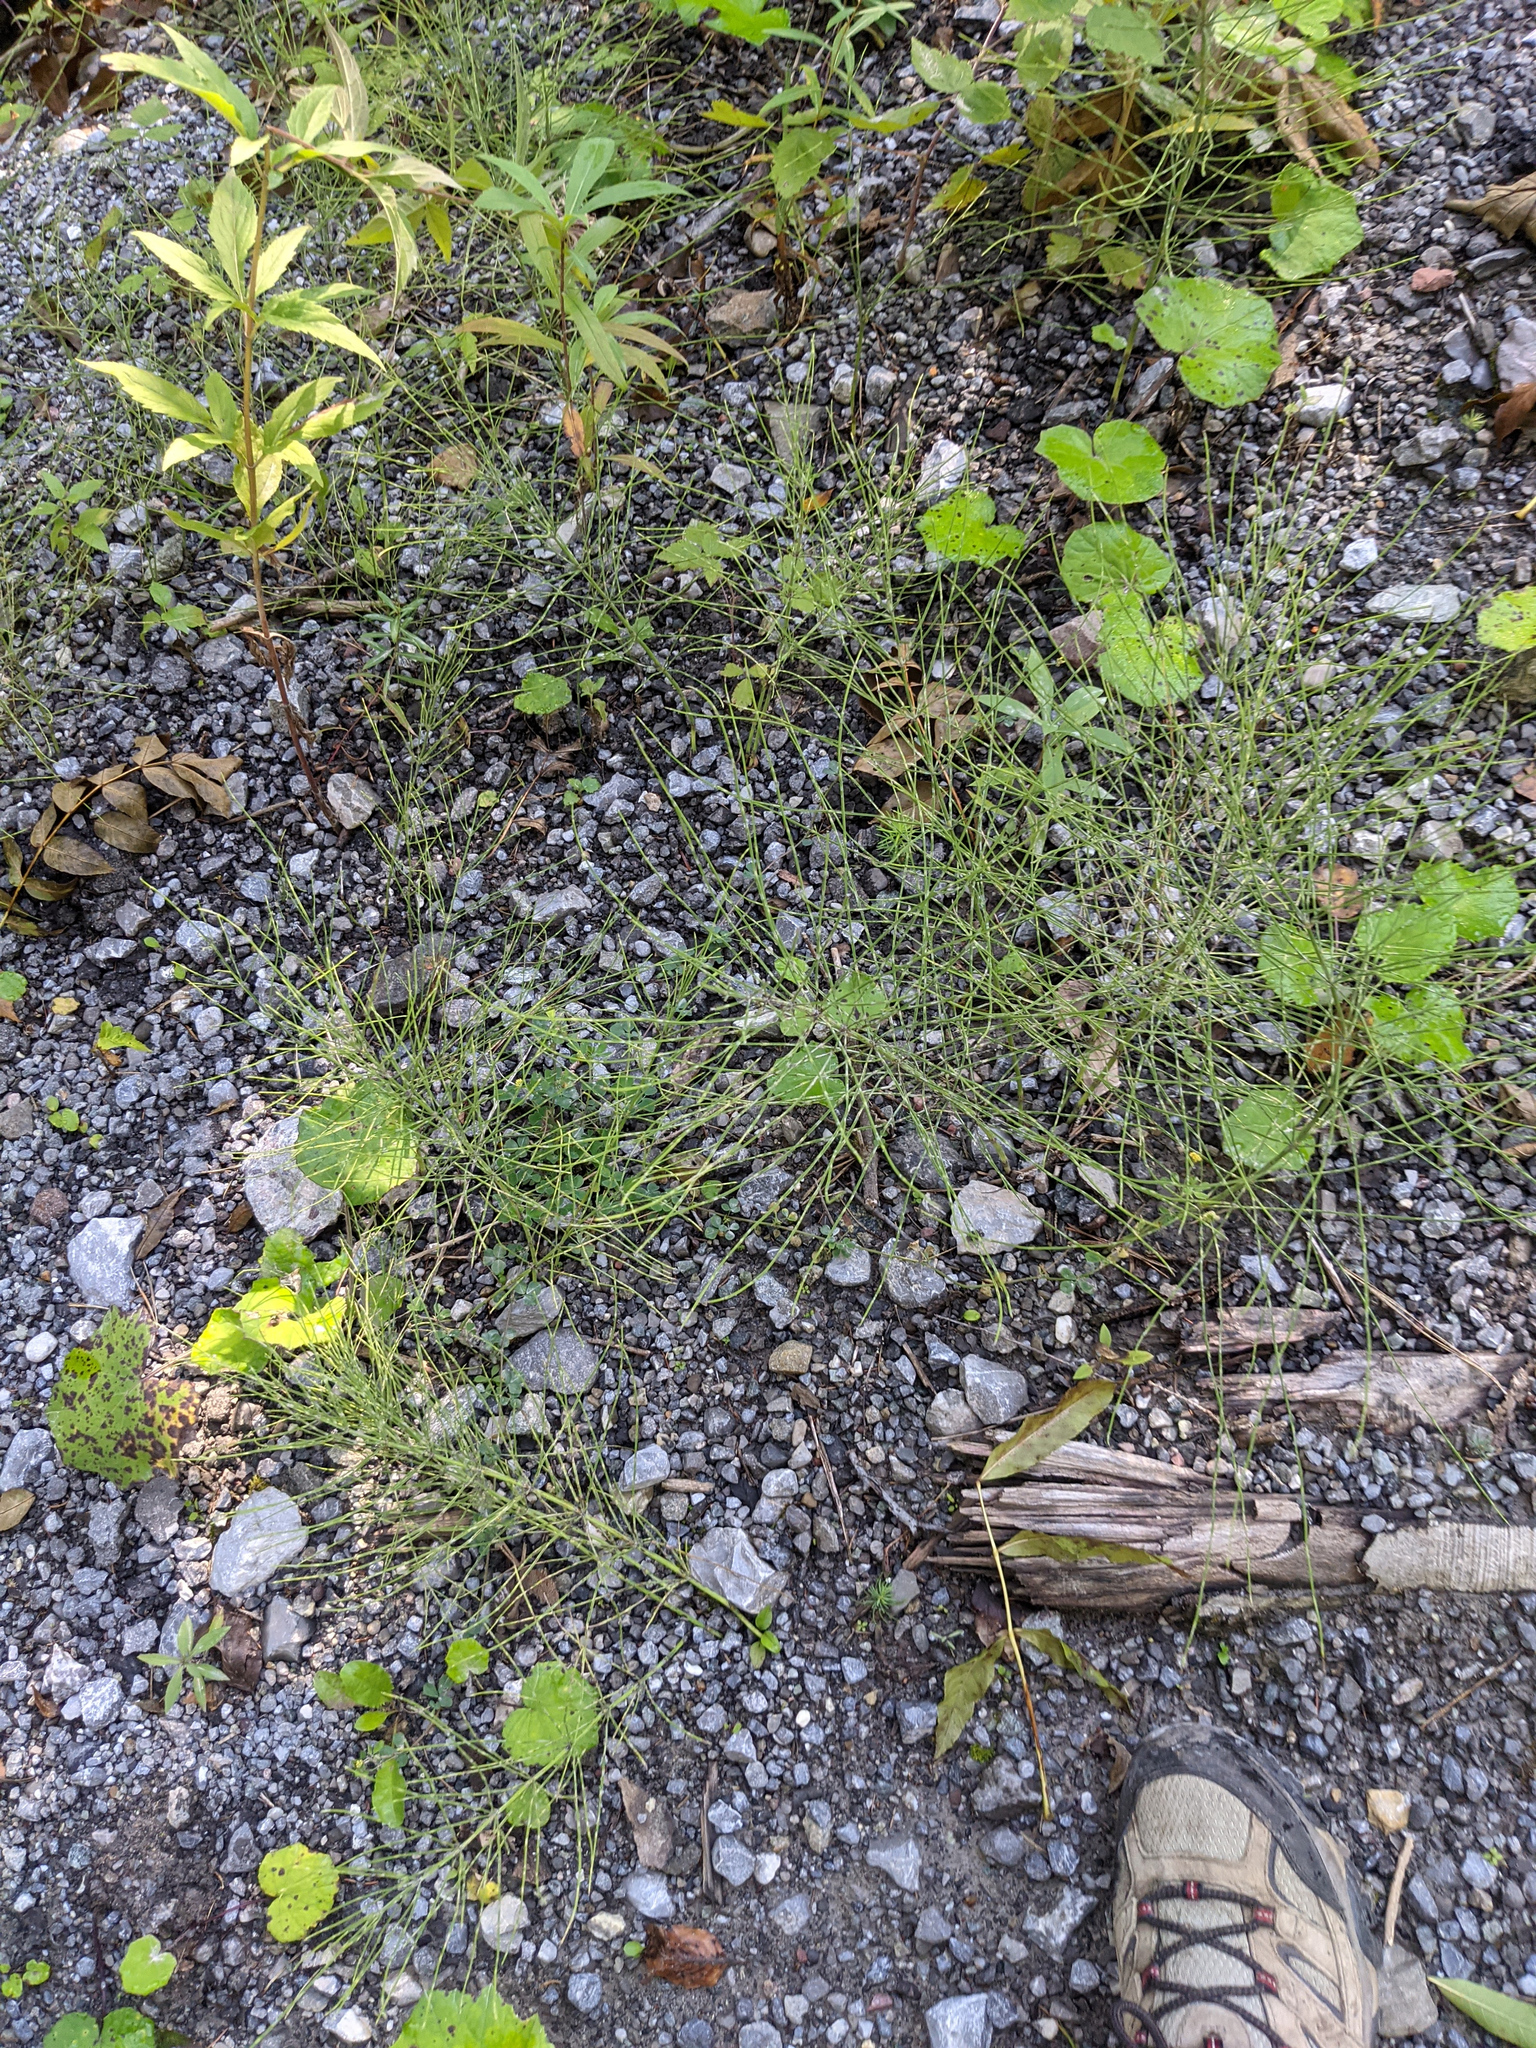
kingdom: Plantae
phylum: Tracheophyta
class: Polypodiopsida
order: Equisetales
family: Equisetaceae
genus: Equisetum
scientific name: Equisetum arvense
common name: Field horsetail
